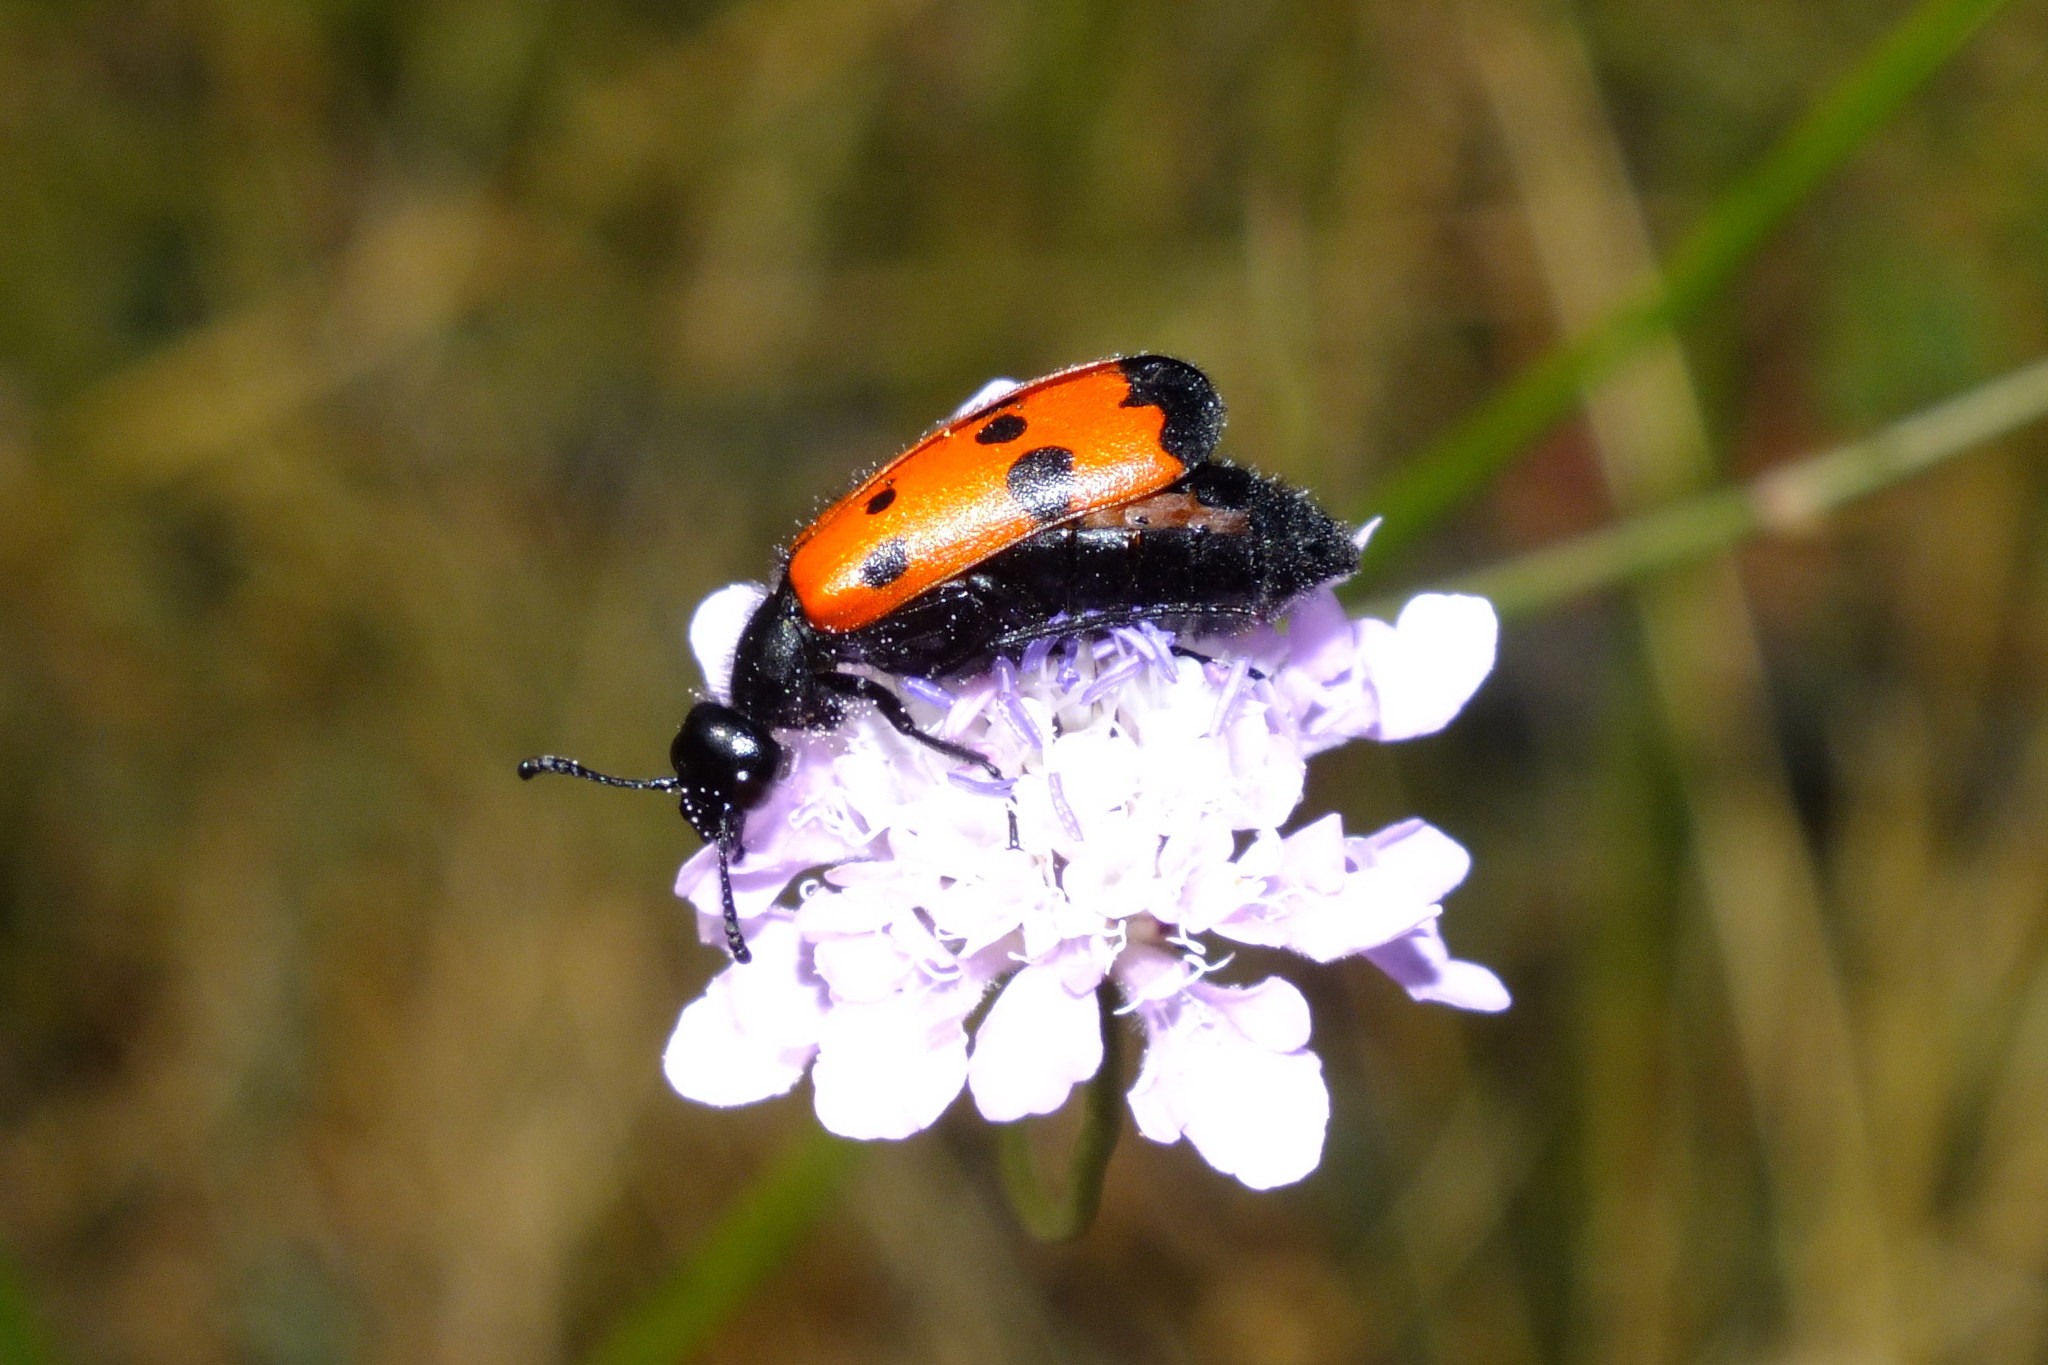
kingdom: Animalia
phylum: Arthropoda
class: Insecta
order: Coleoptera
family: Meloidae
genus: Mylabris
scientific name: Mylabris quadripunctata
